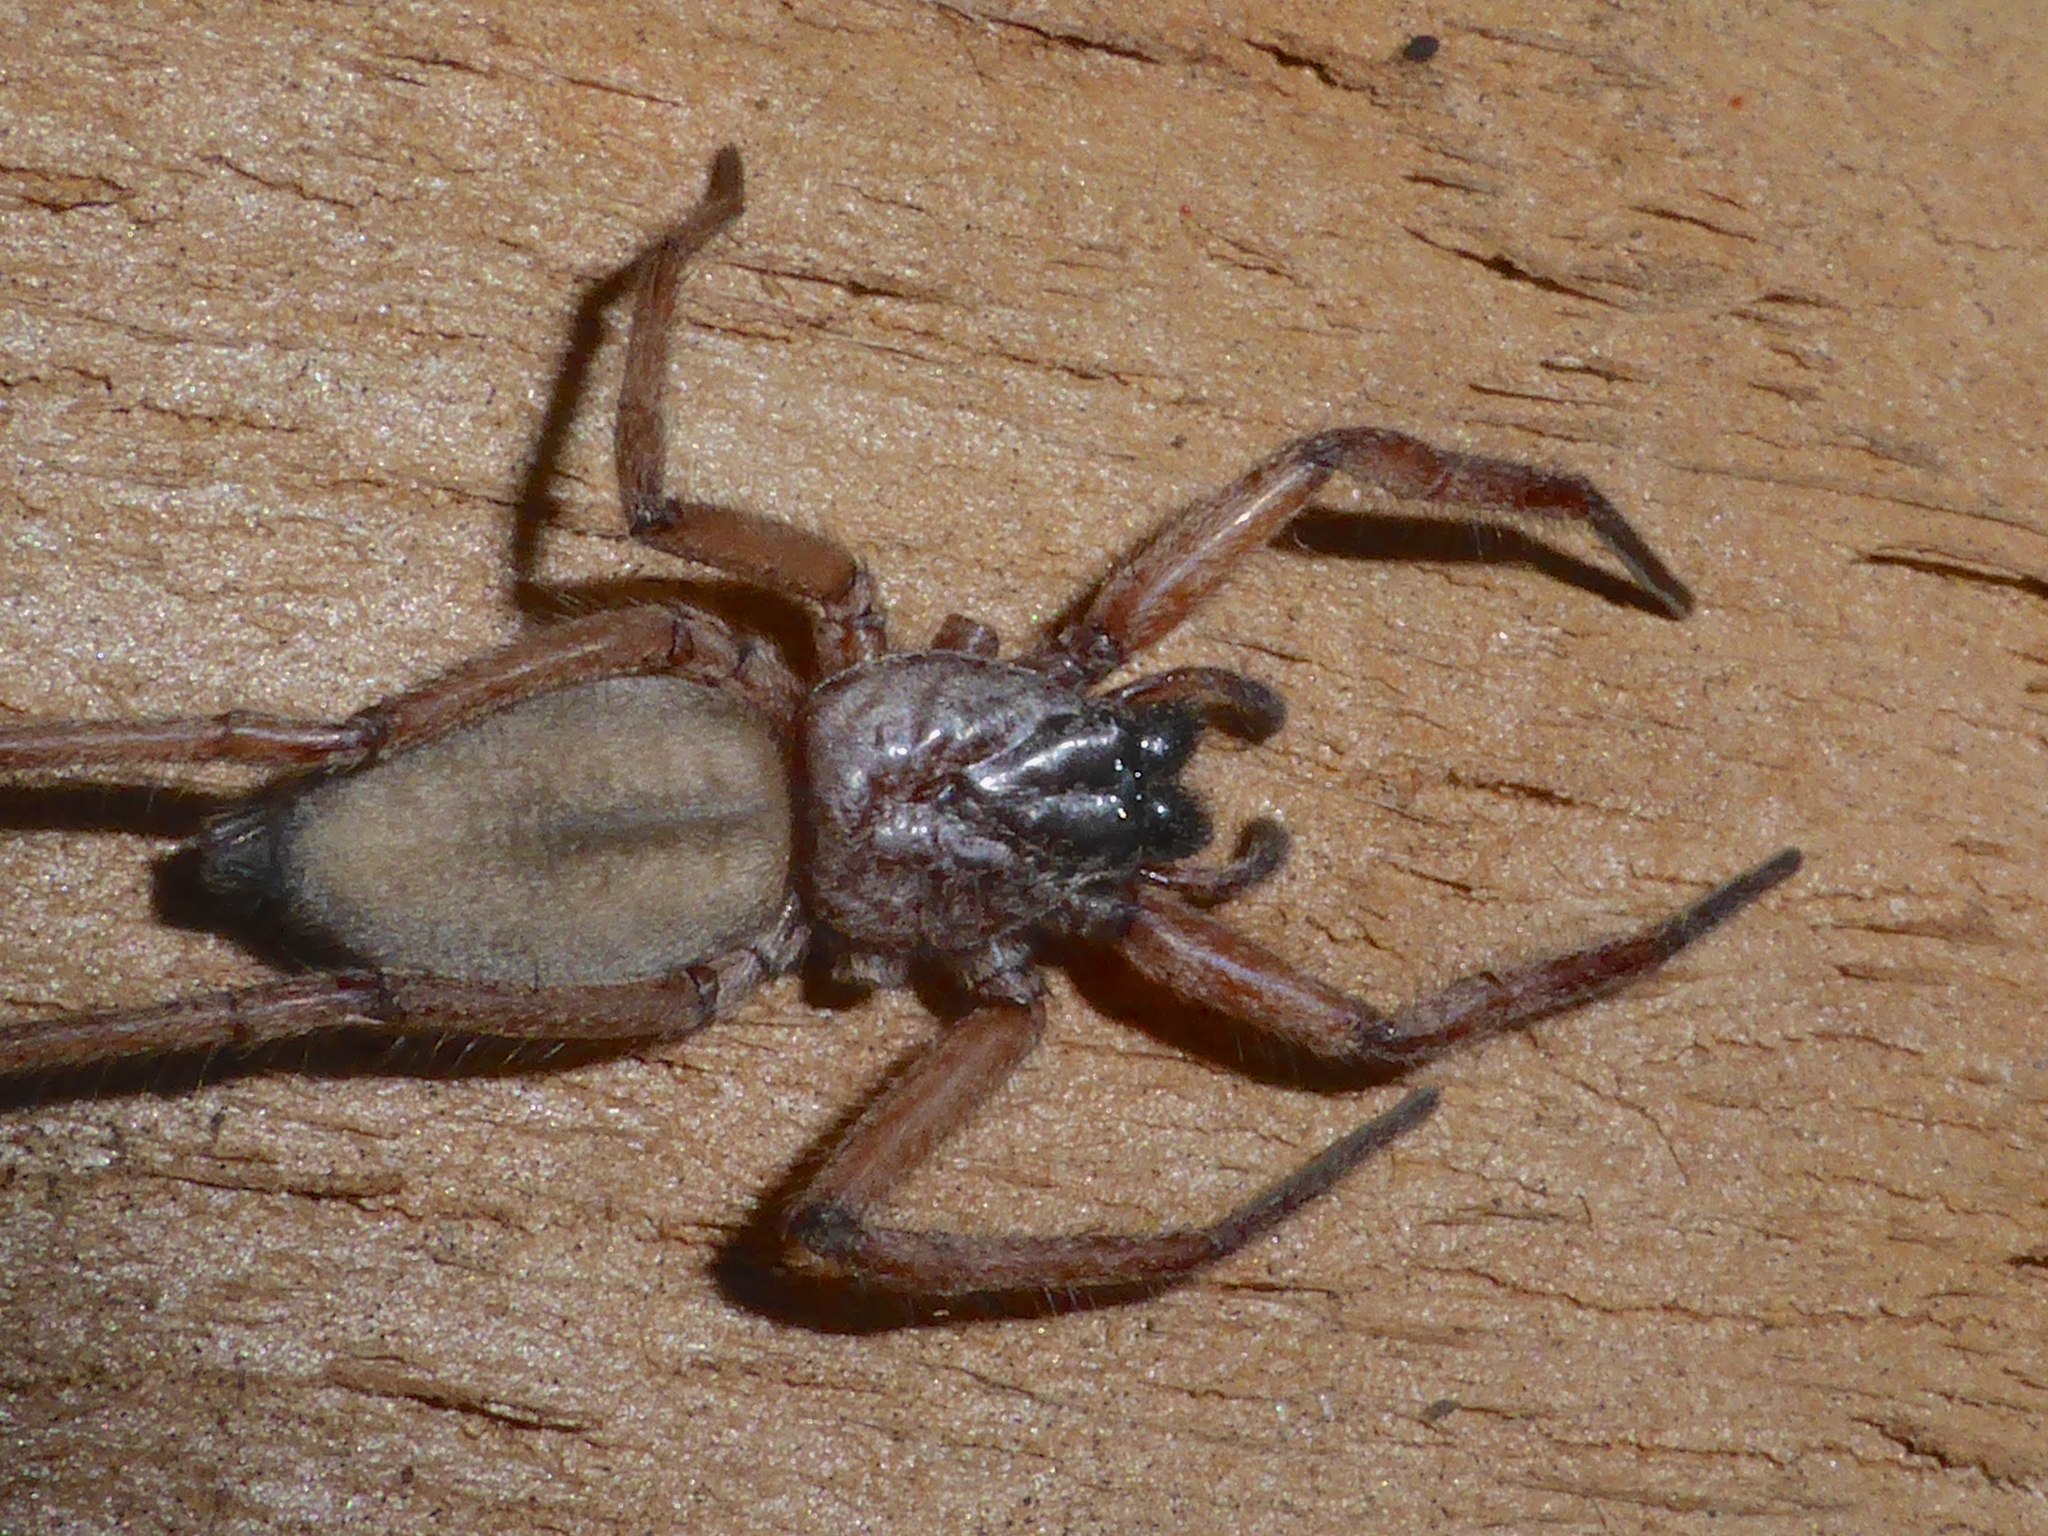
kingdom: Animalia
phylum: Arthropoda
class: Arachnida
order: Araneae
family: Trochanteriidae
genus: Hemicloea
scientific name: Hemicloea rogenhoferi
